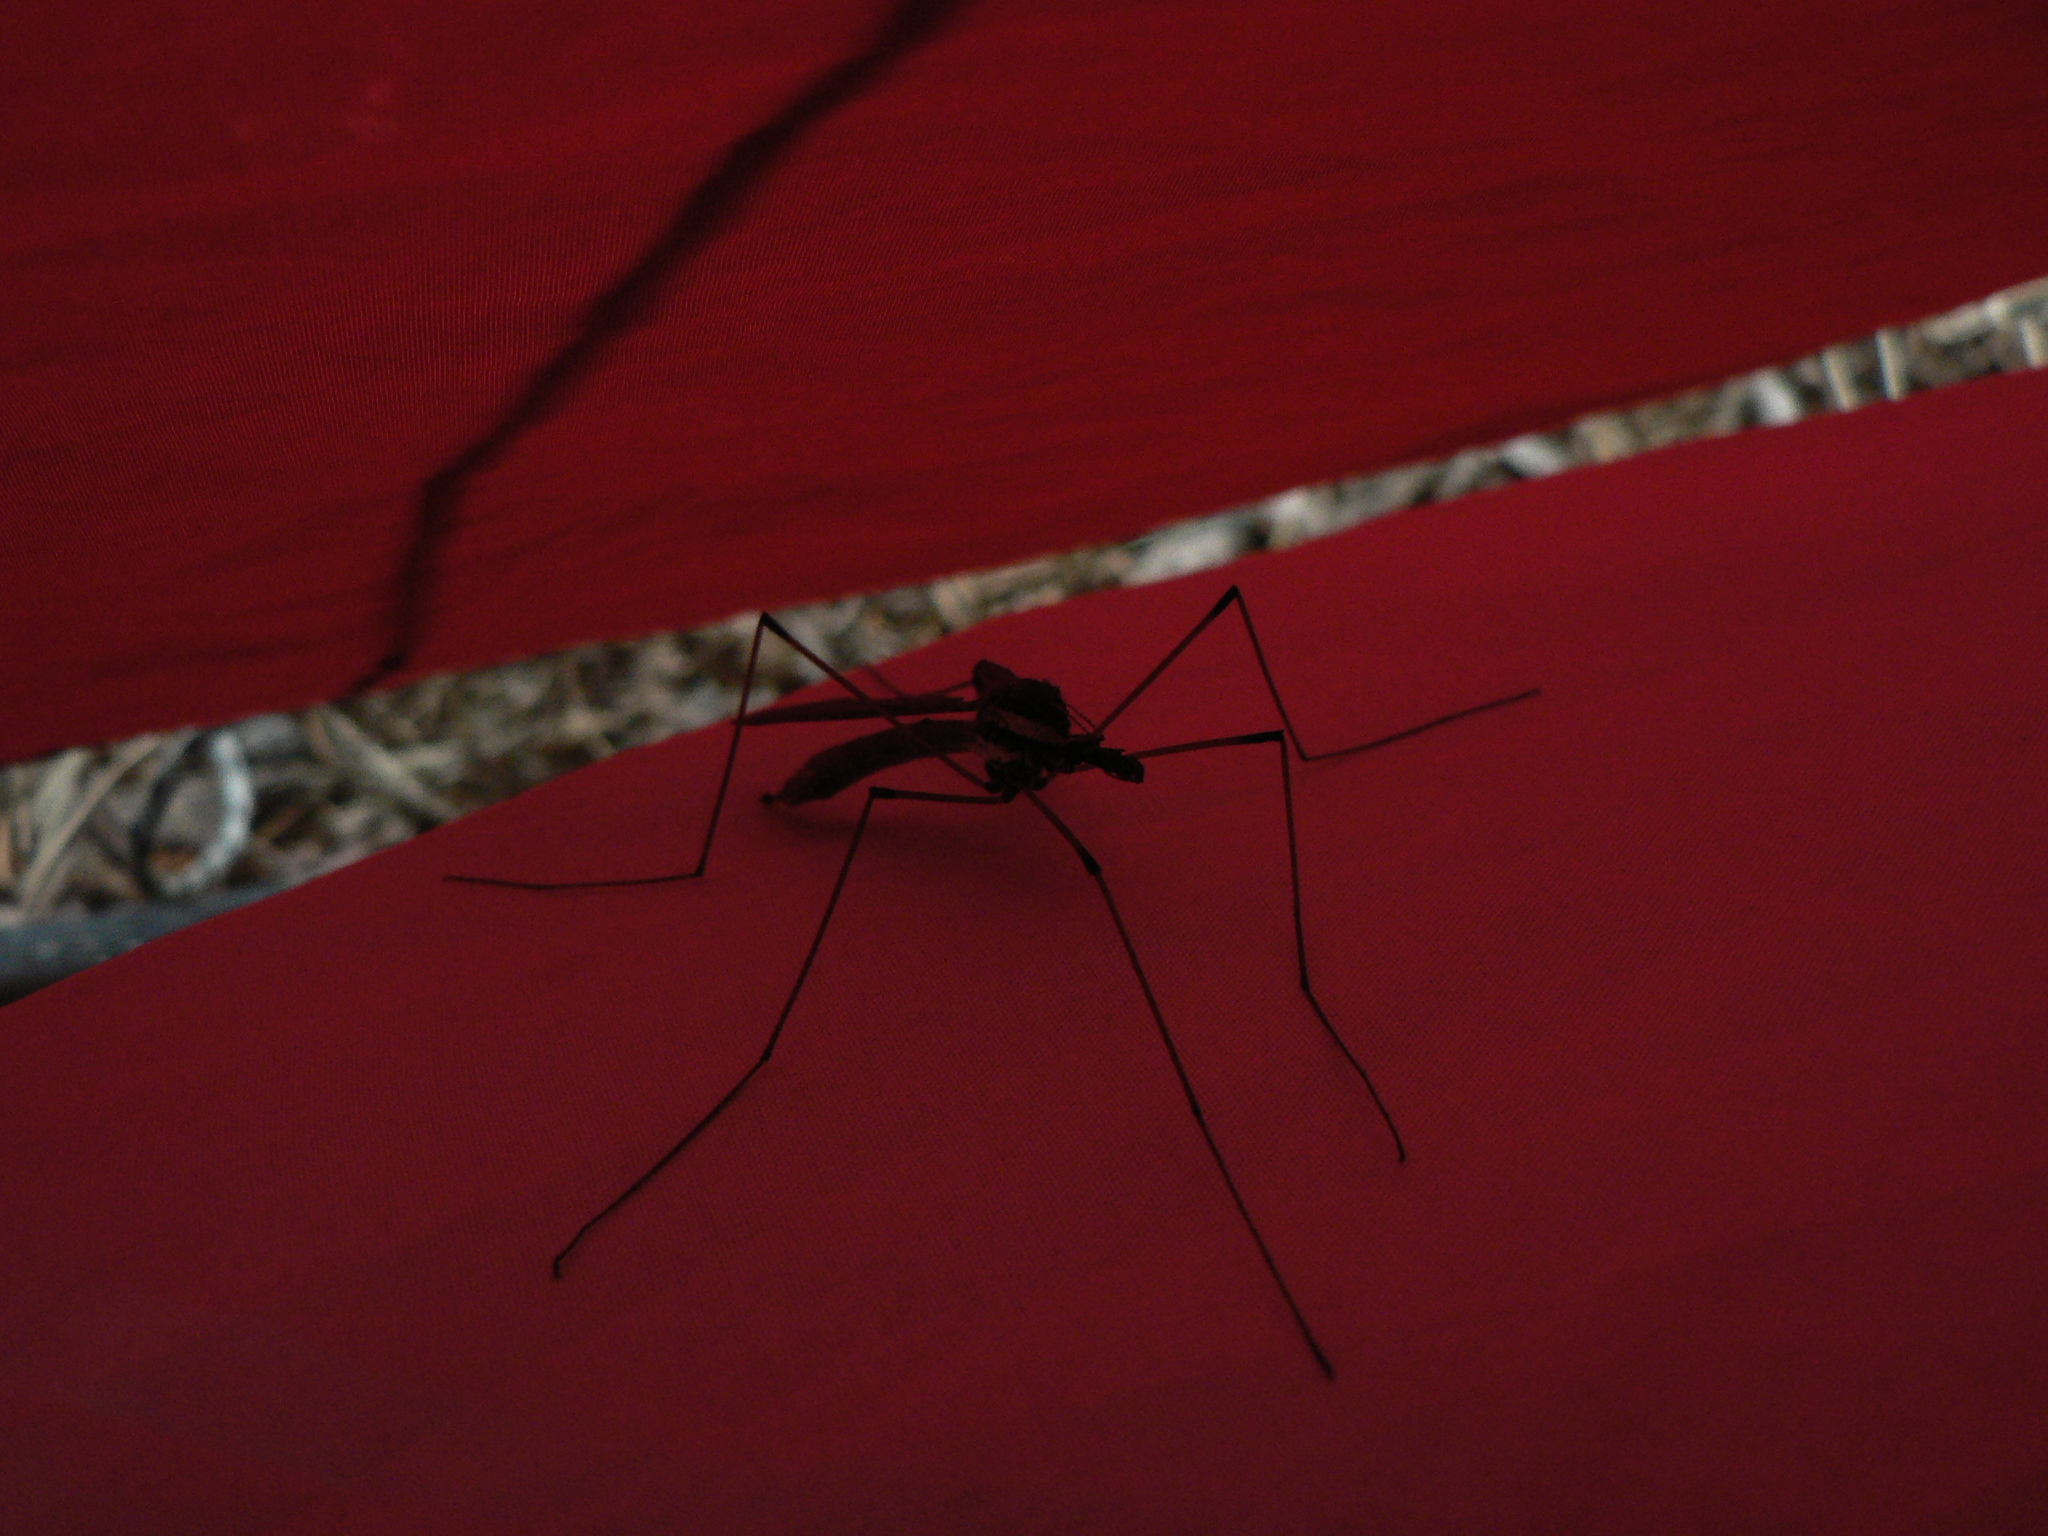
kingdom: Animalia
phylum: Arthropoda
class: Insecta
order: Diptera
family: Tipulidae
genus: Holorusia
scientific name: Holorusia hespera
